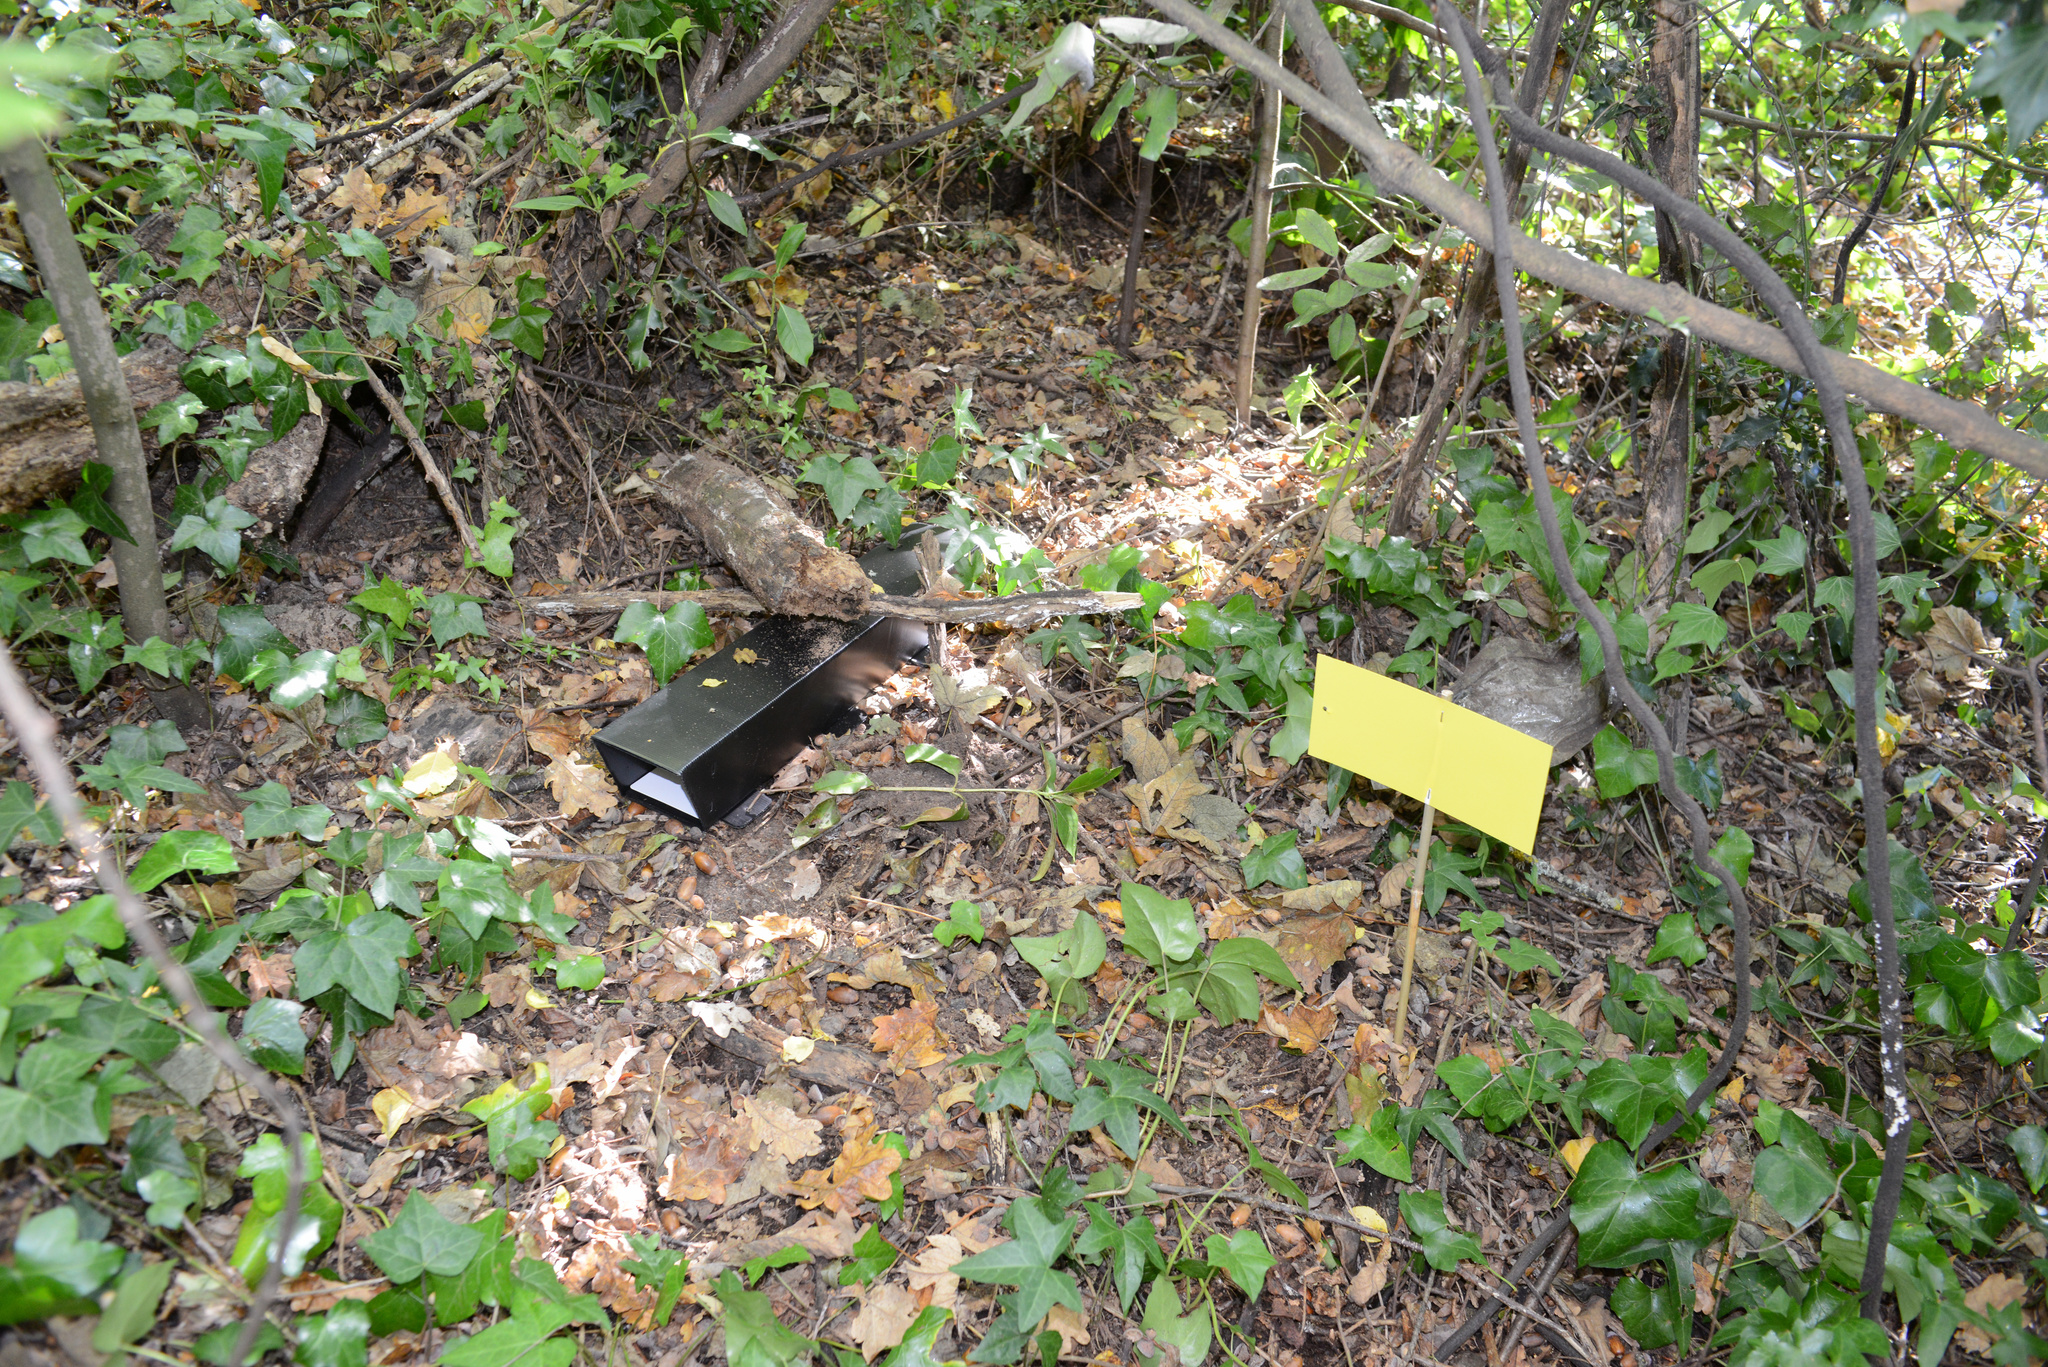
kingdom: Plantae
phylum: Tracheophyta
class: Magnoliopsida
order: Apiales
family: Araliaceae
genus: Hedera
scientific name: Hedera helix
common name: Ivy
